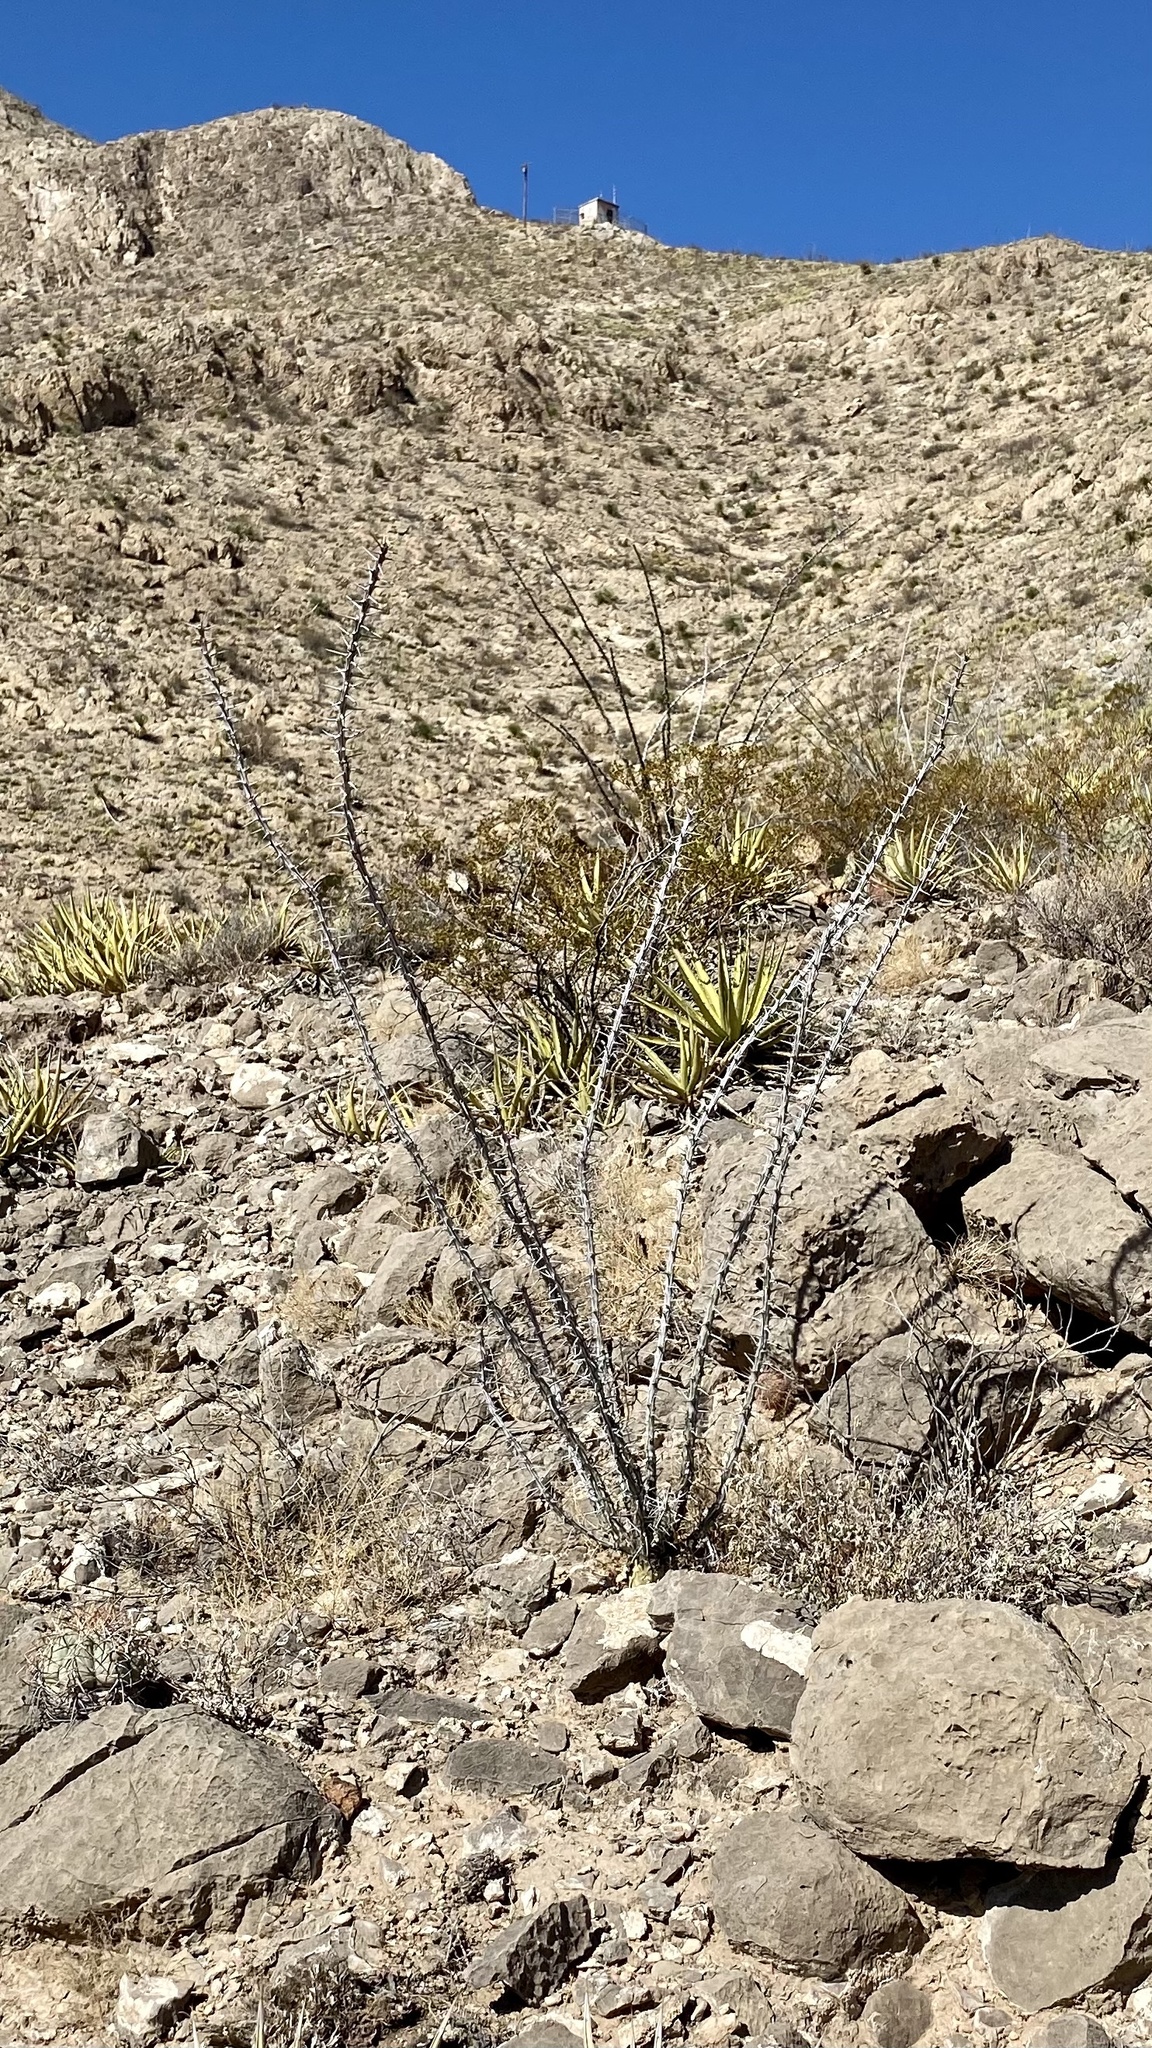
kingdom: Plantae
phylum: Tracheophyta
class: Magnoliopsida
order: Ericales
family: Fouquieriaceae
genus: Fouquieria
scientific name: Fouquieria splendens
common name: Vine-cactus
